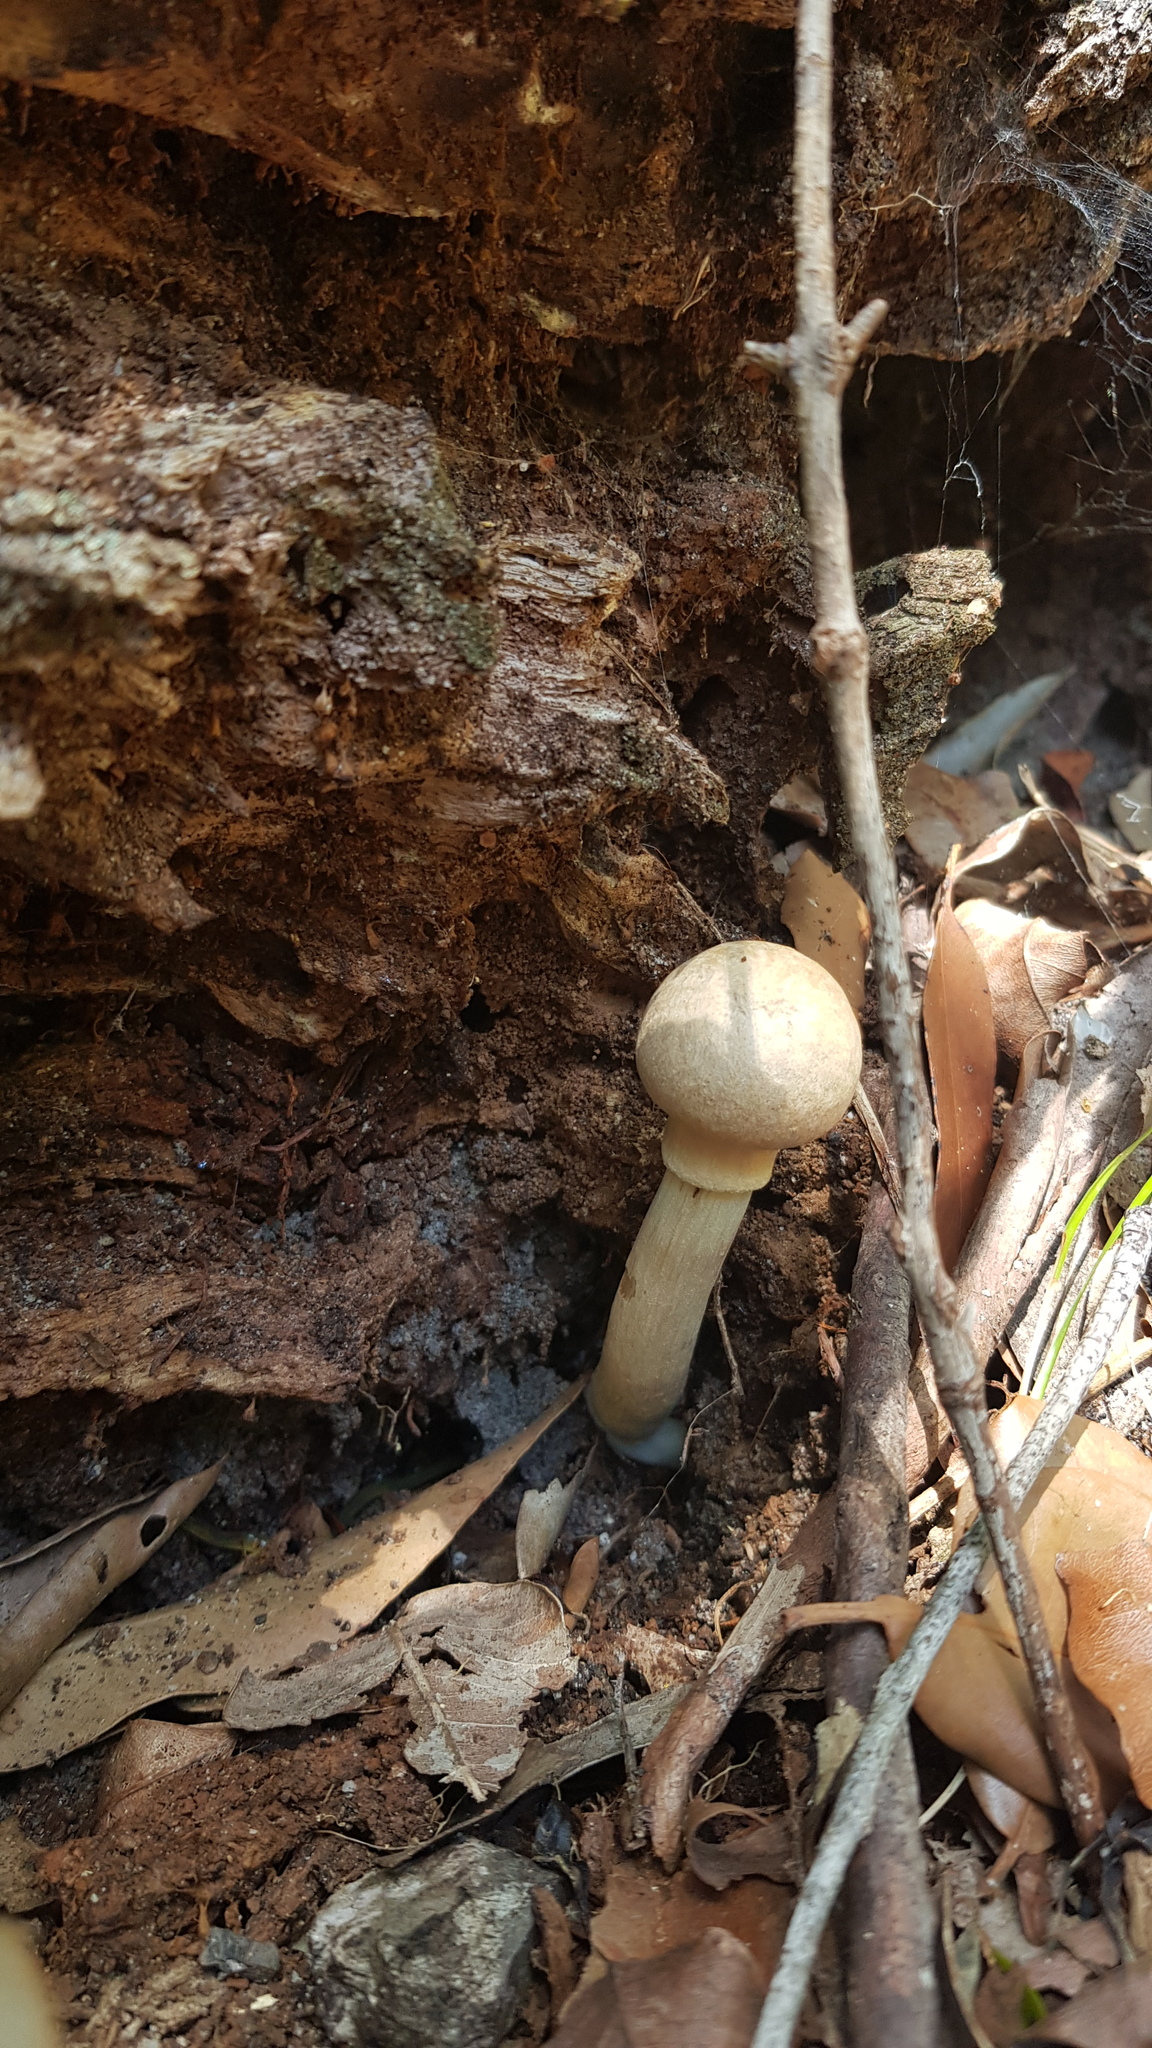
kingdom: Fungi
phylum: Basidiomycota
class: Agaricomycetes
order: Boletales
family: Boletaceae
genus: Boletellus
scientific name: Boletellus dissiliens
